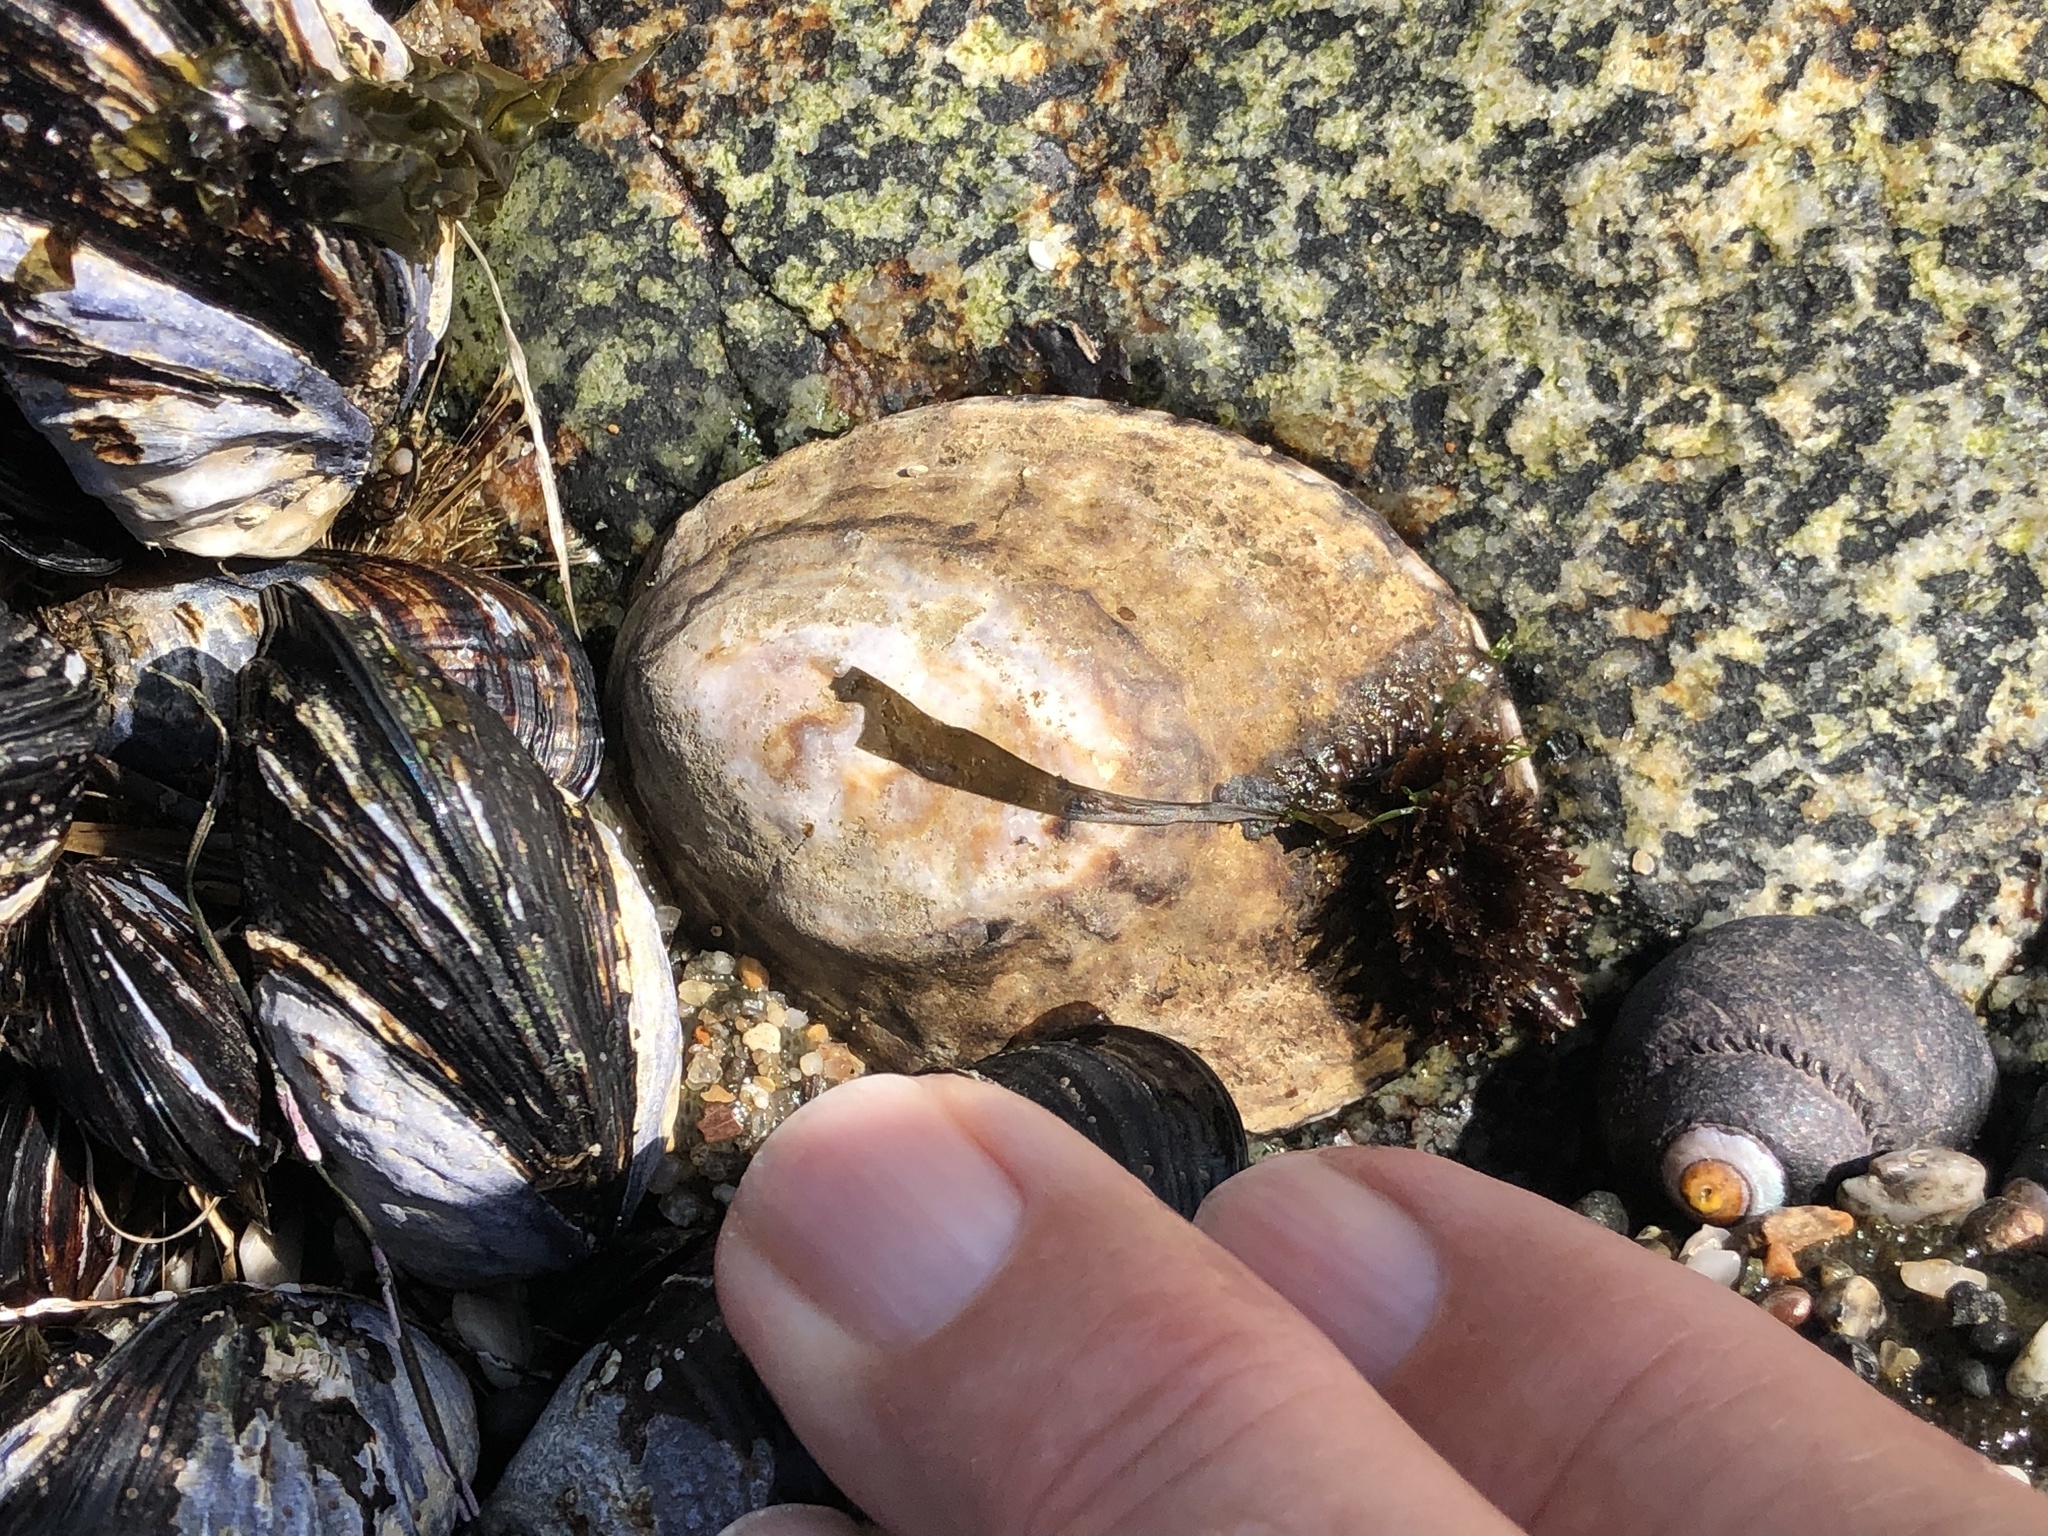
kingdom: Animalia
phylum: Mollusca
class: Gastropoda
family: Lottiidae
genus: Lottia
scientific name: Lottia gigantea
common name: Owl limpet
